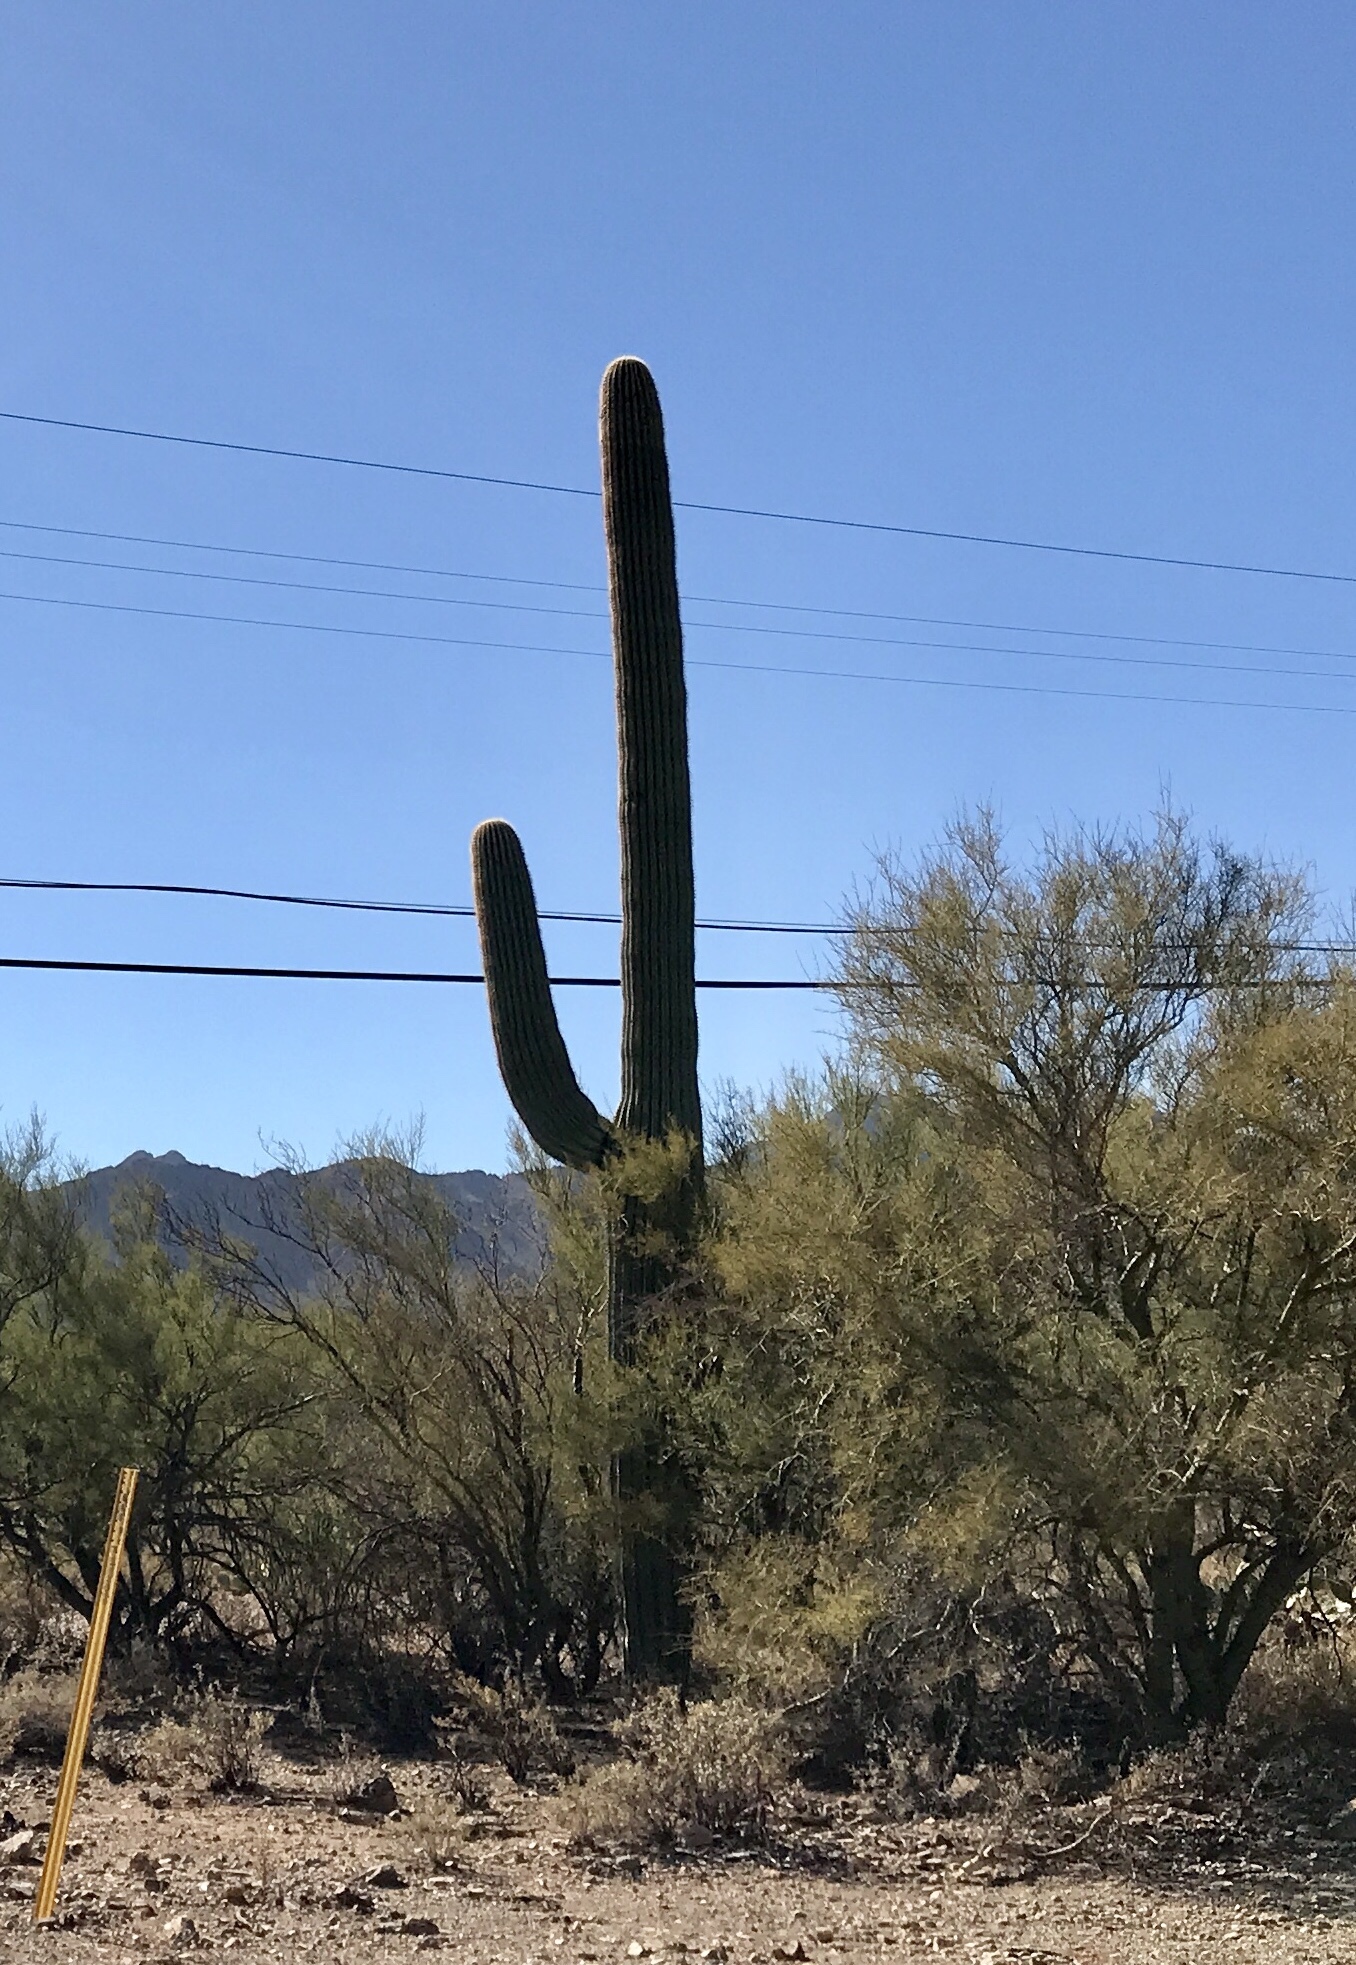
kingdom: Plantae
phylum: Tracheophyta
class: Magnoliopsida
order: Caryophyllales
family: Cactaceae
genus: Carnegiea
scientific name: Carnegiea gigantea
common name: Saguaro
